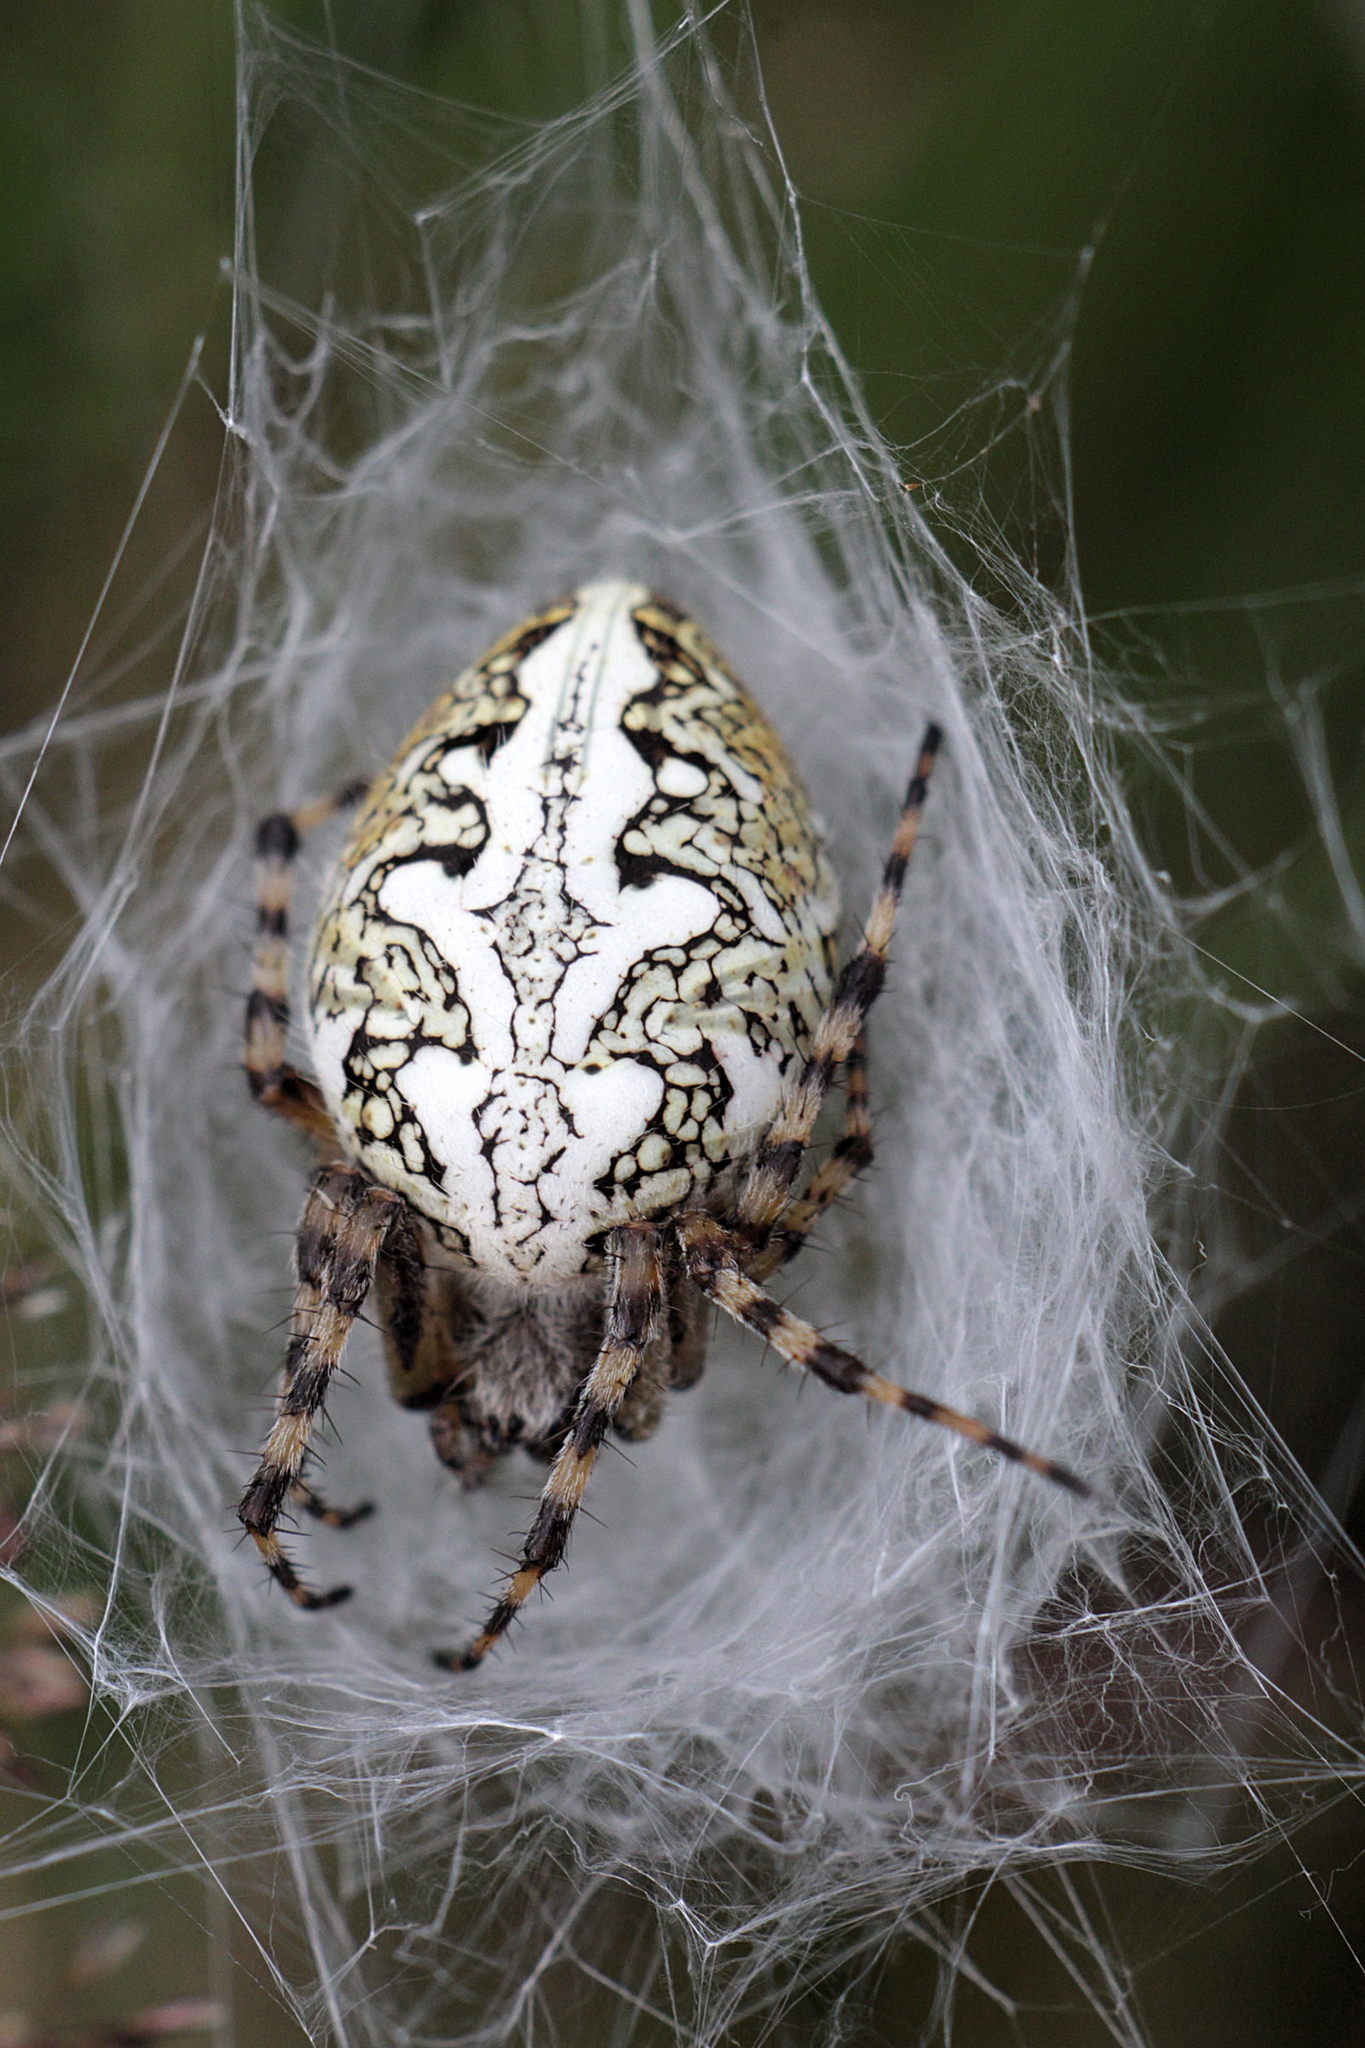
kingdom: Animalia
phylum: Arthropoda
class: Arachnida
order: Araneae
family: Araneidae
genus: Aculepeira
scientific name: Aculepeira ceropegia
